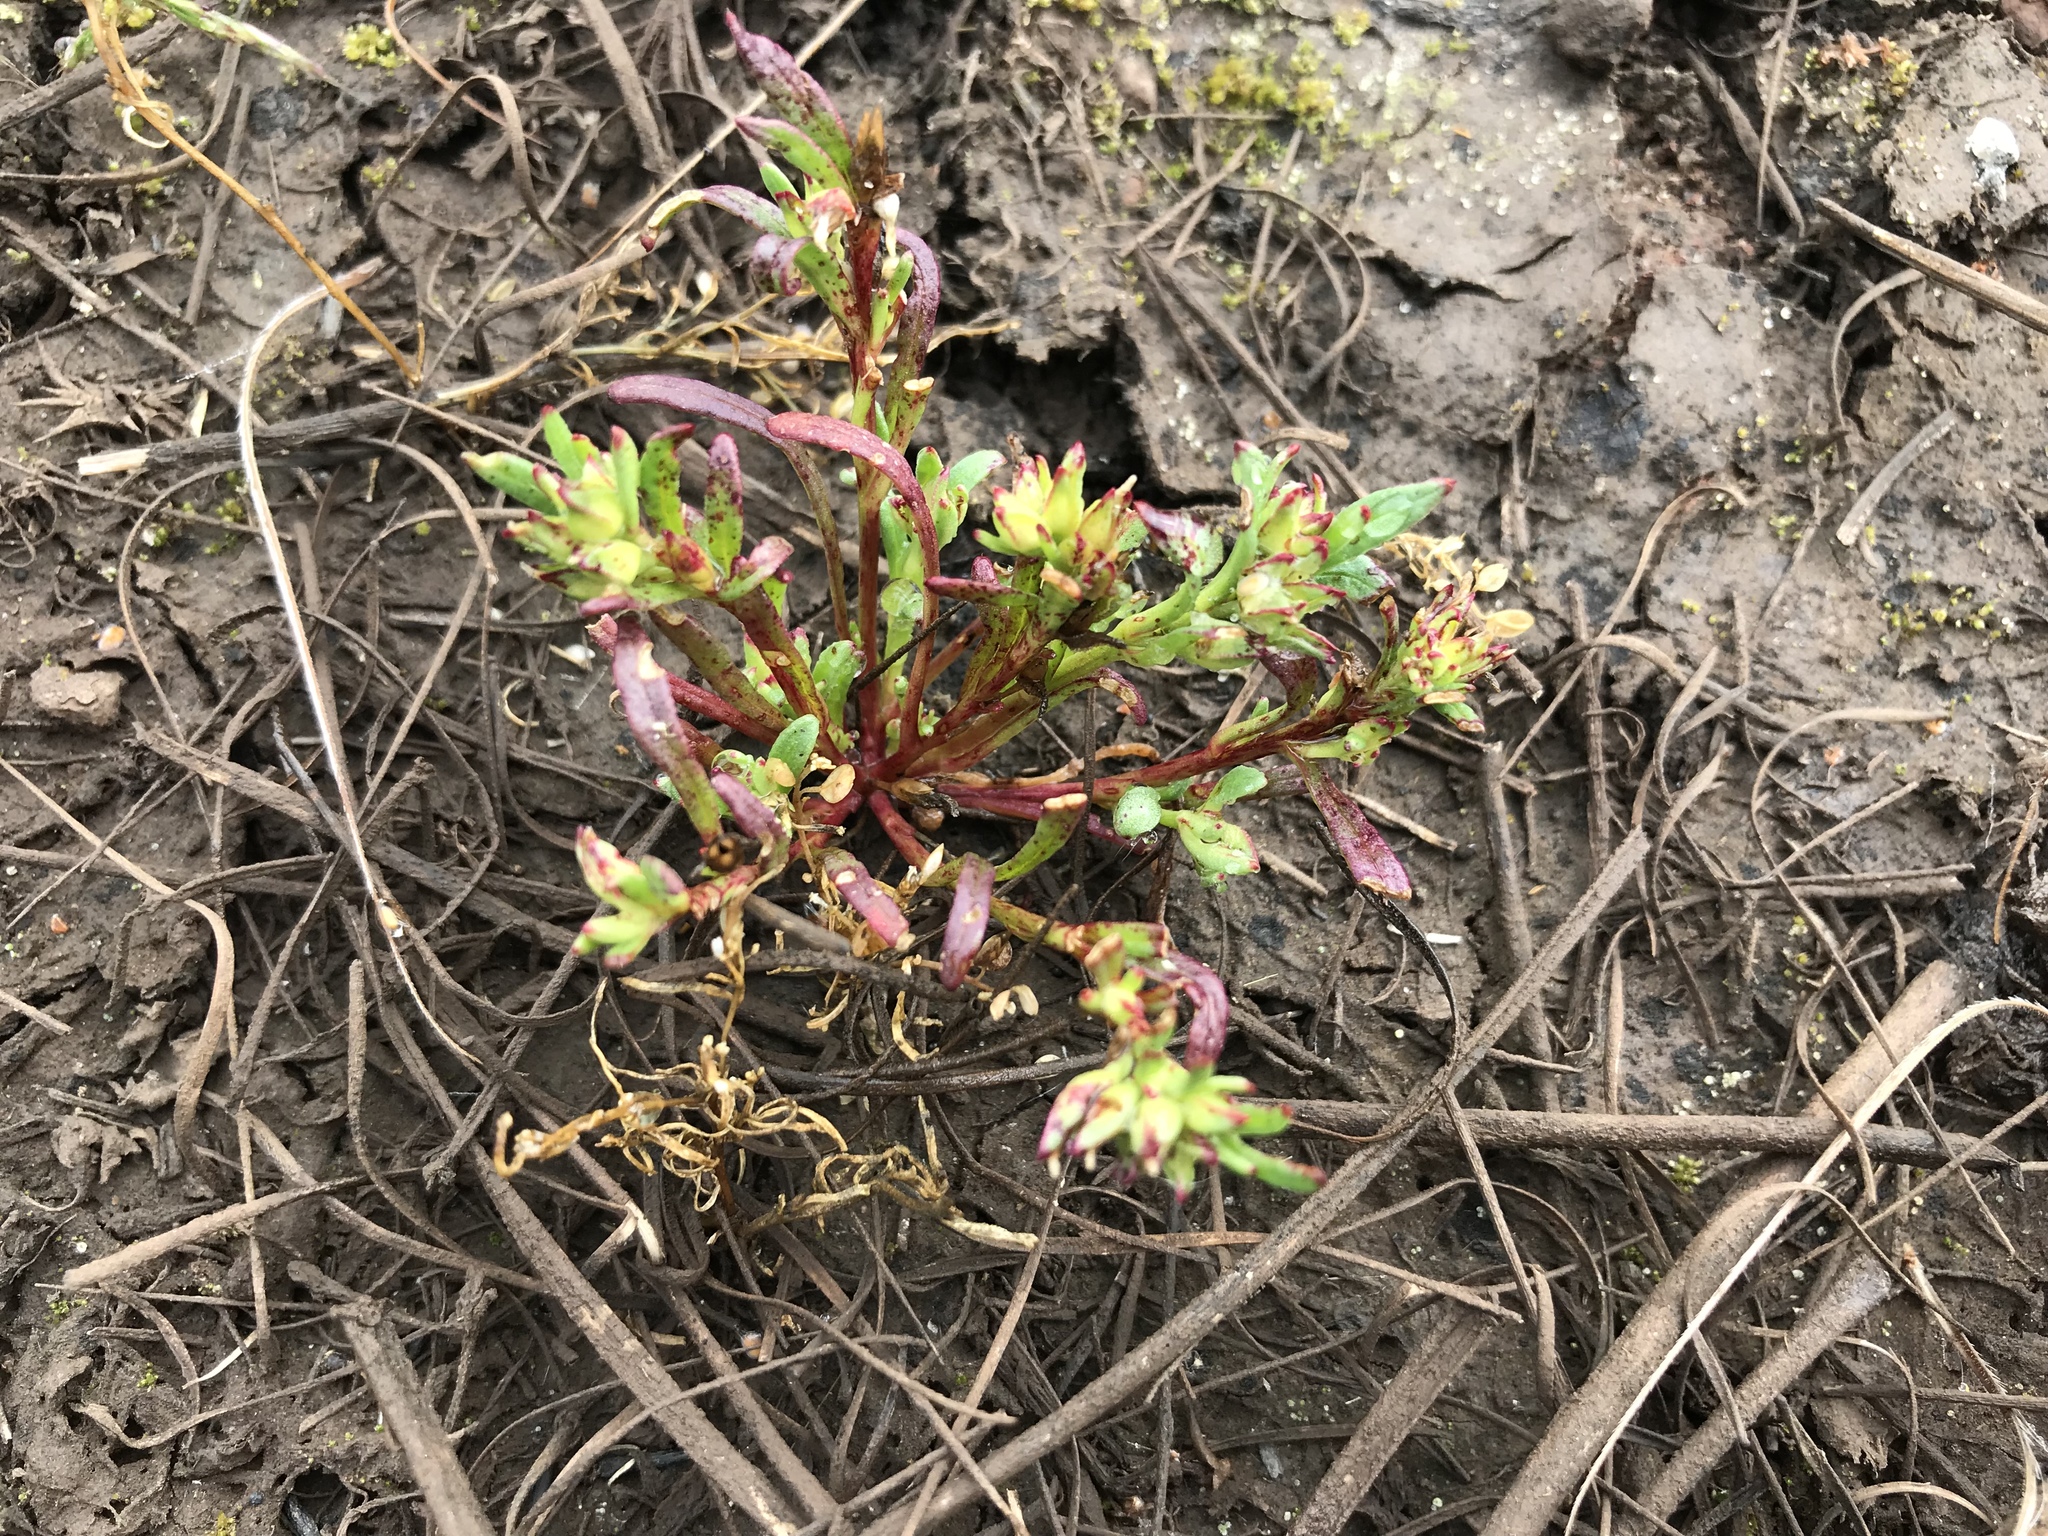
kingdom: Plantae
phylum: Tracheophyta
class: Magnoliopsida
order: Caryophyllales
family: Montiaceae
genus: Calandrinia
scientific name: Calandrinia menziesii
